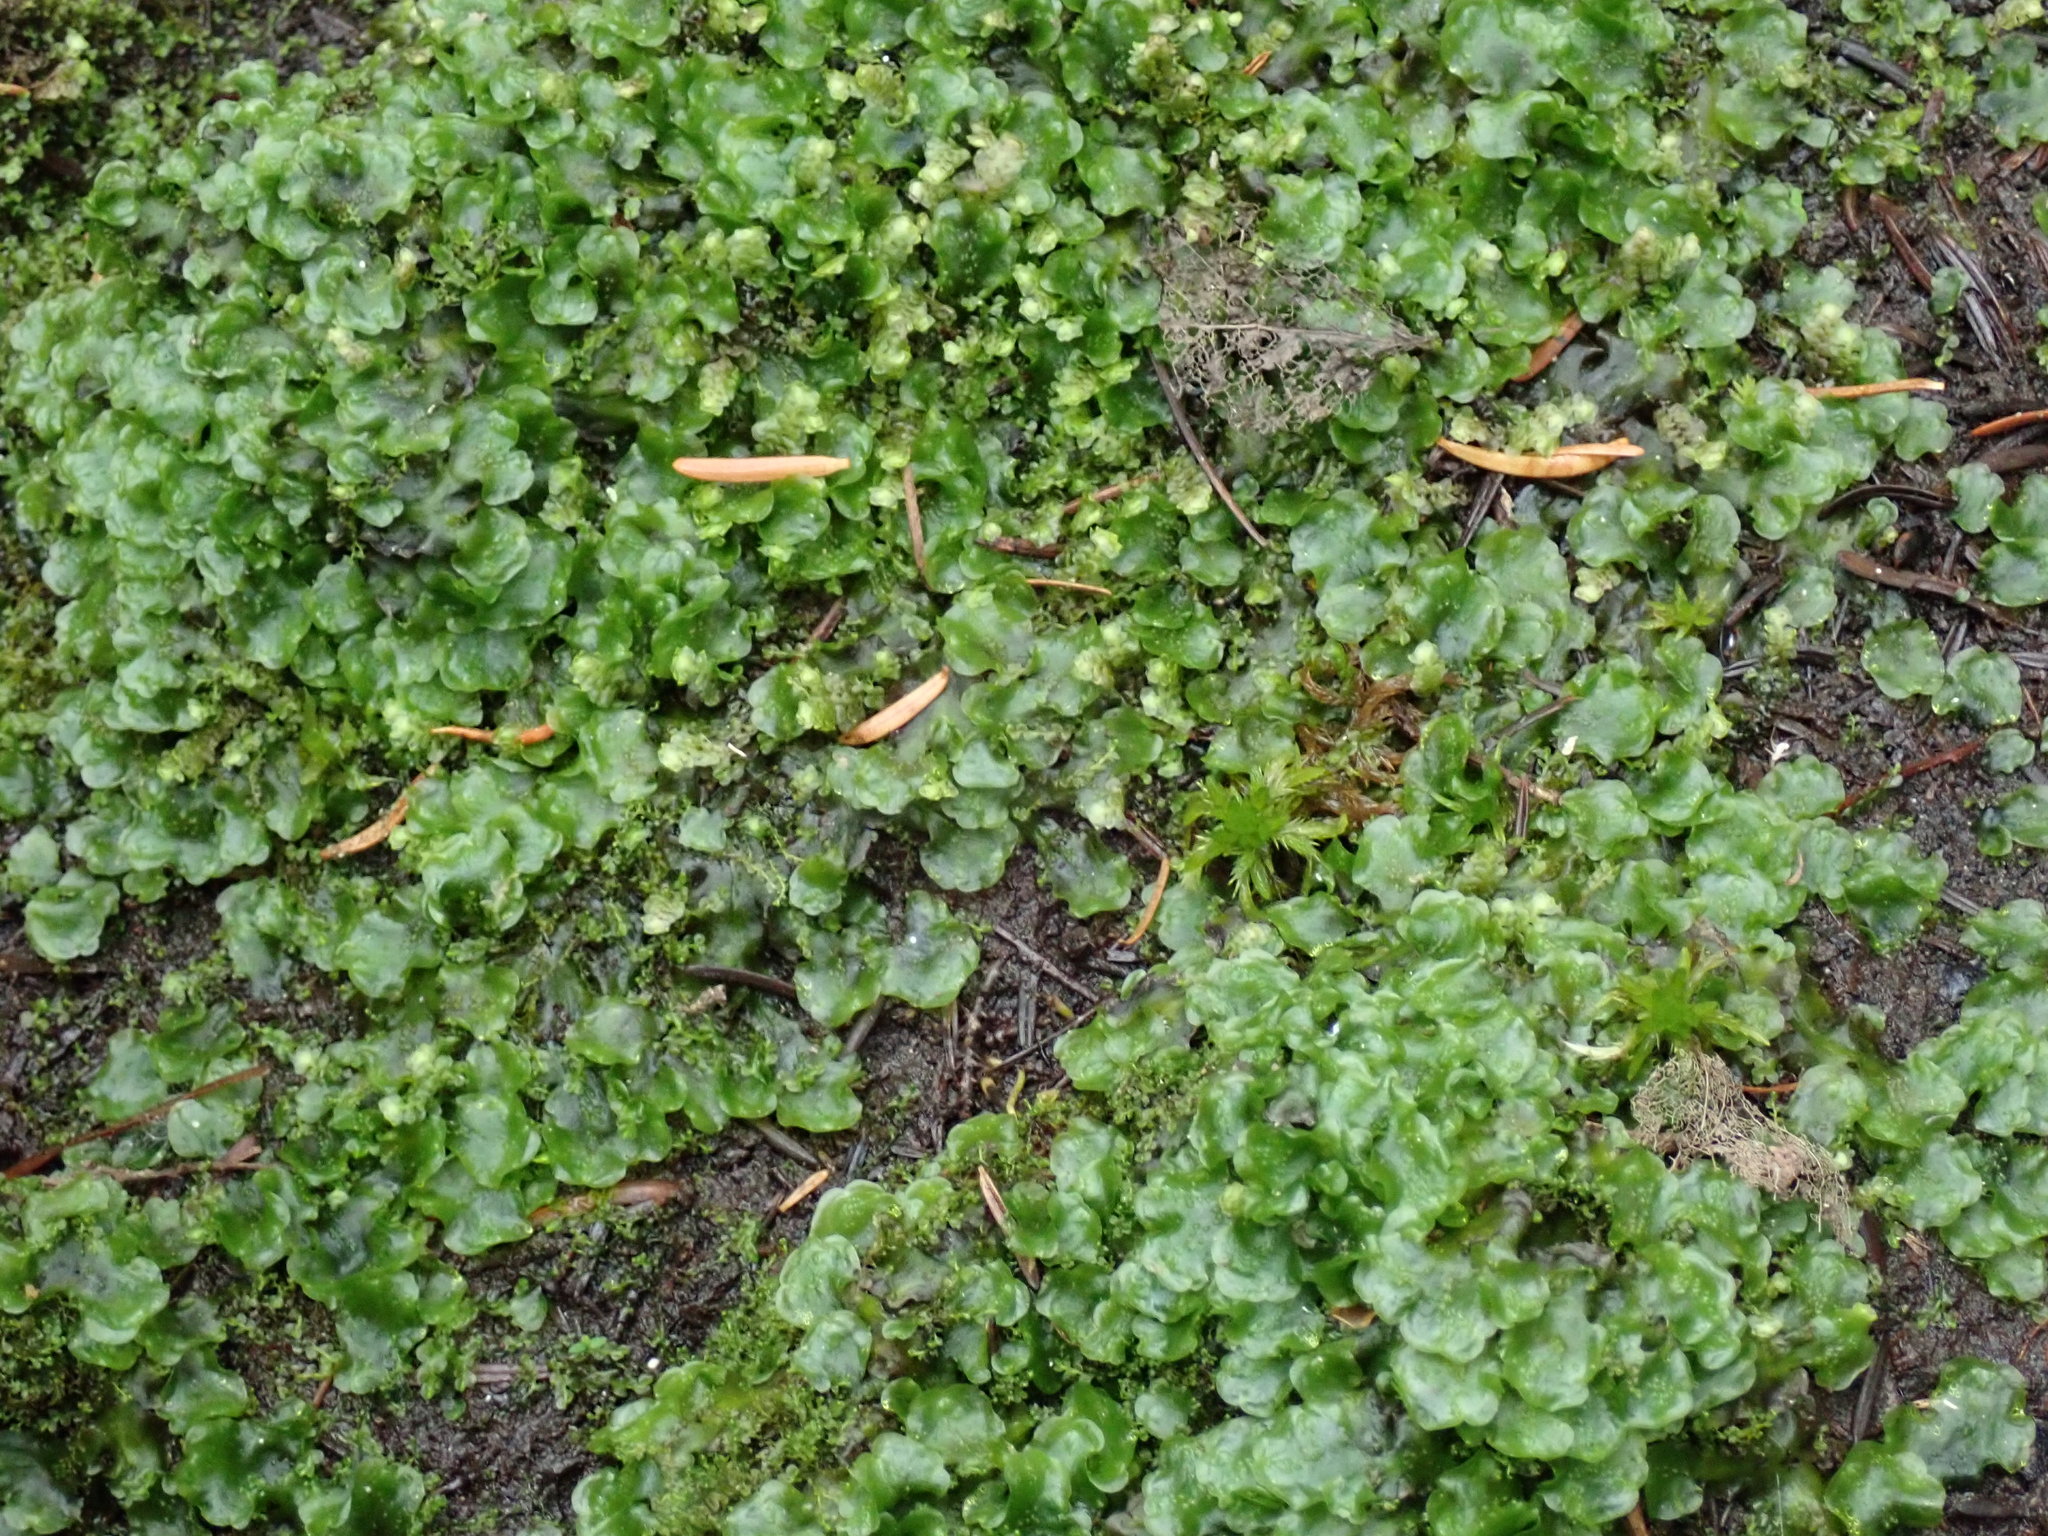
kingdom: Plantae
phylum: Marchantiophyta
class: Jungermanniopsida
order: Pelliales
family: Pelliaceae
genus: Pellia
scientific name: Pellia neesiana
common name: Nees  pellia
